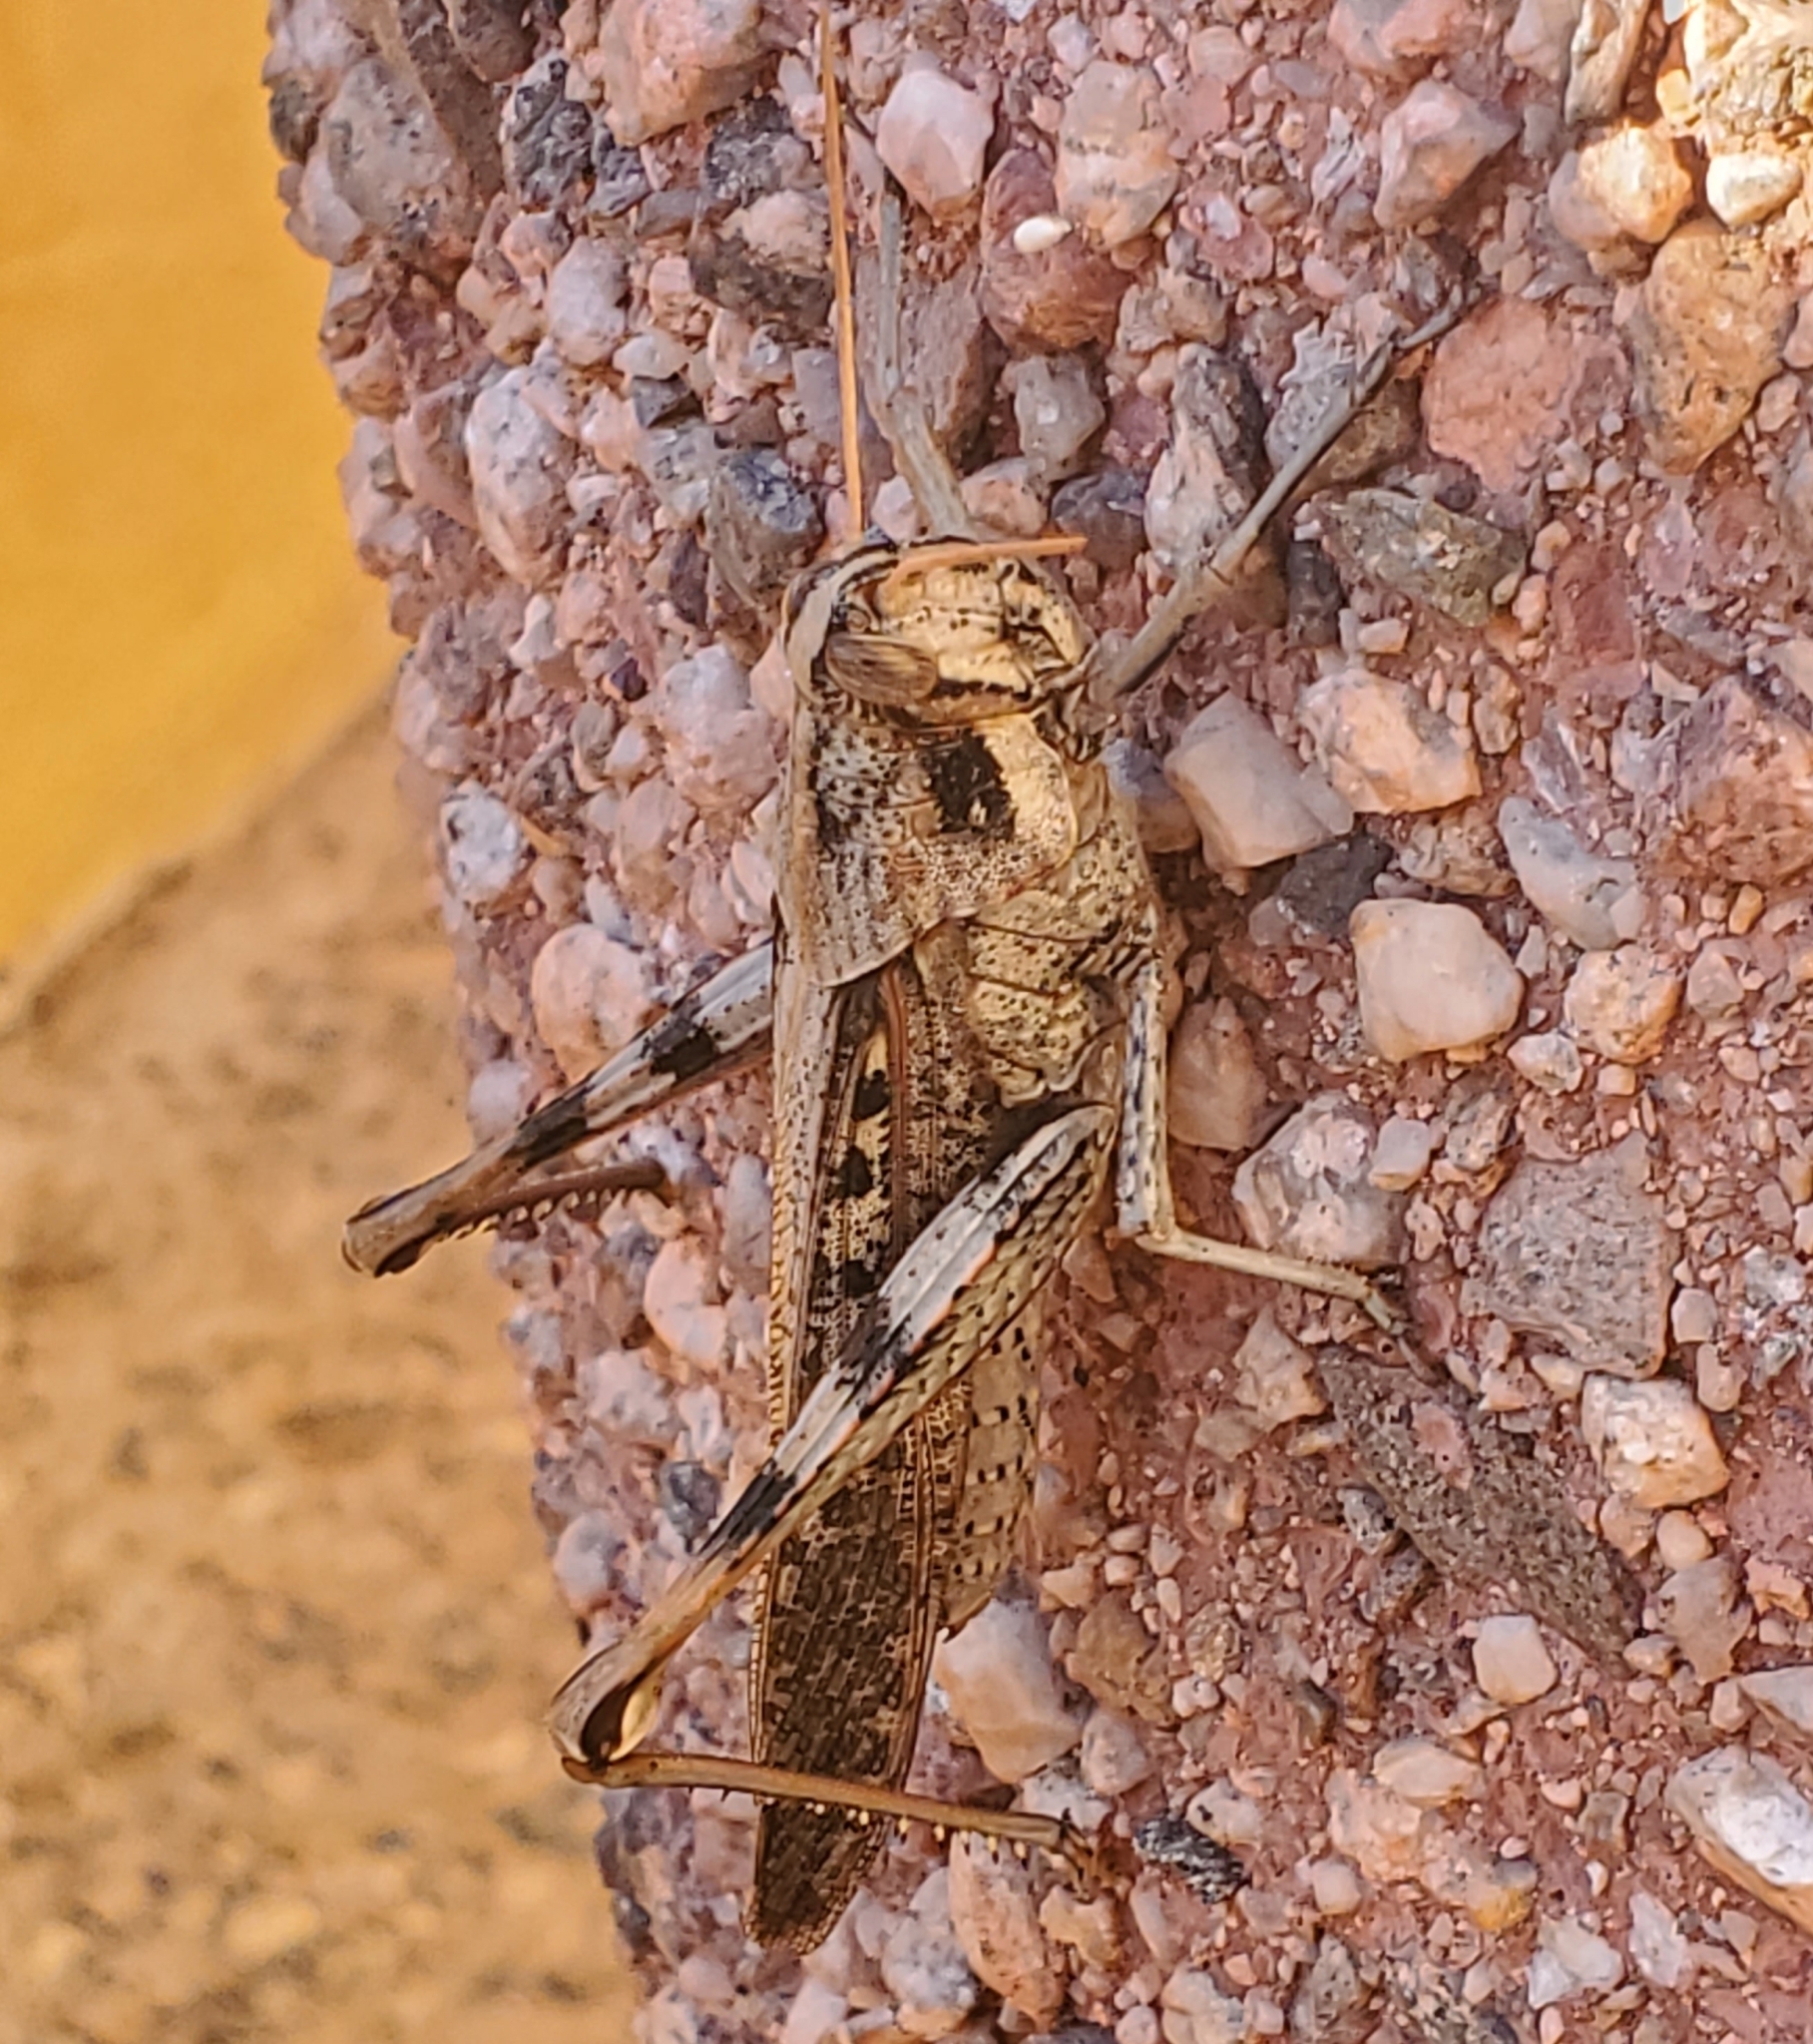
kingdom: Animalia
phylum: Arthropoda
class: Insecta
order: Orthoptera
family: Acrididae
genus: Schistocerca
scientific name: Schistocerca nitens
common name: Vagrant grasshopper
